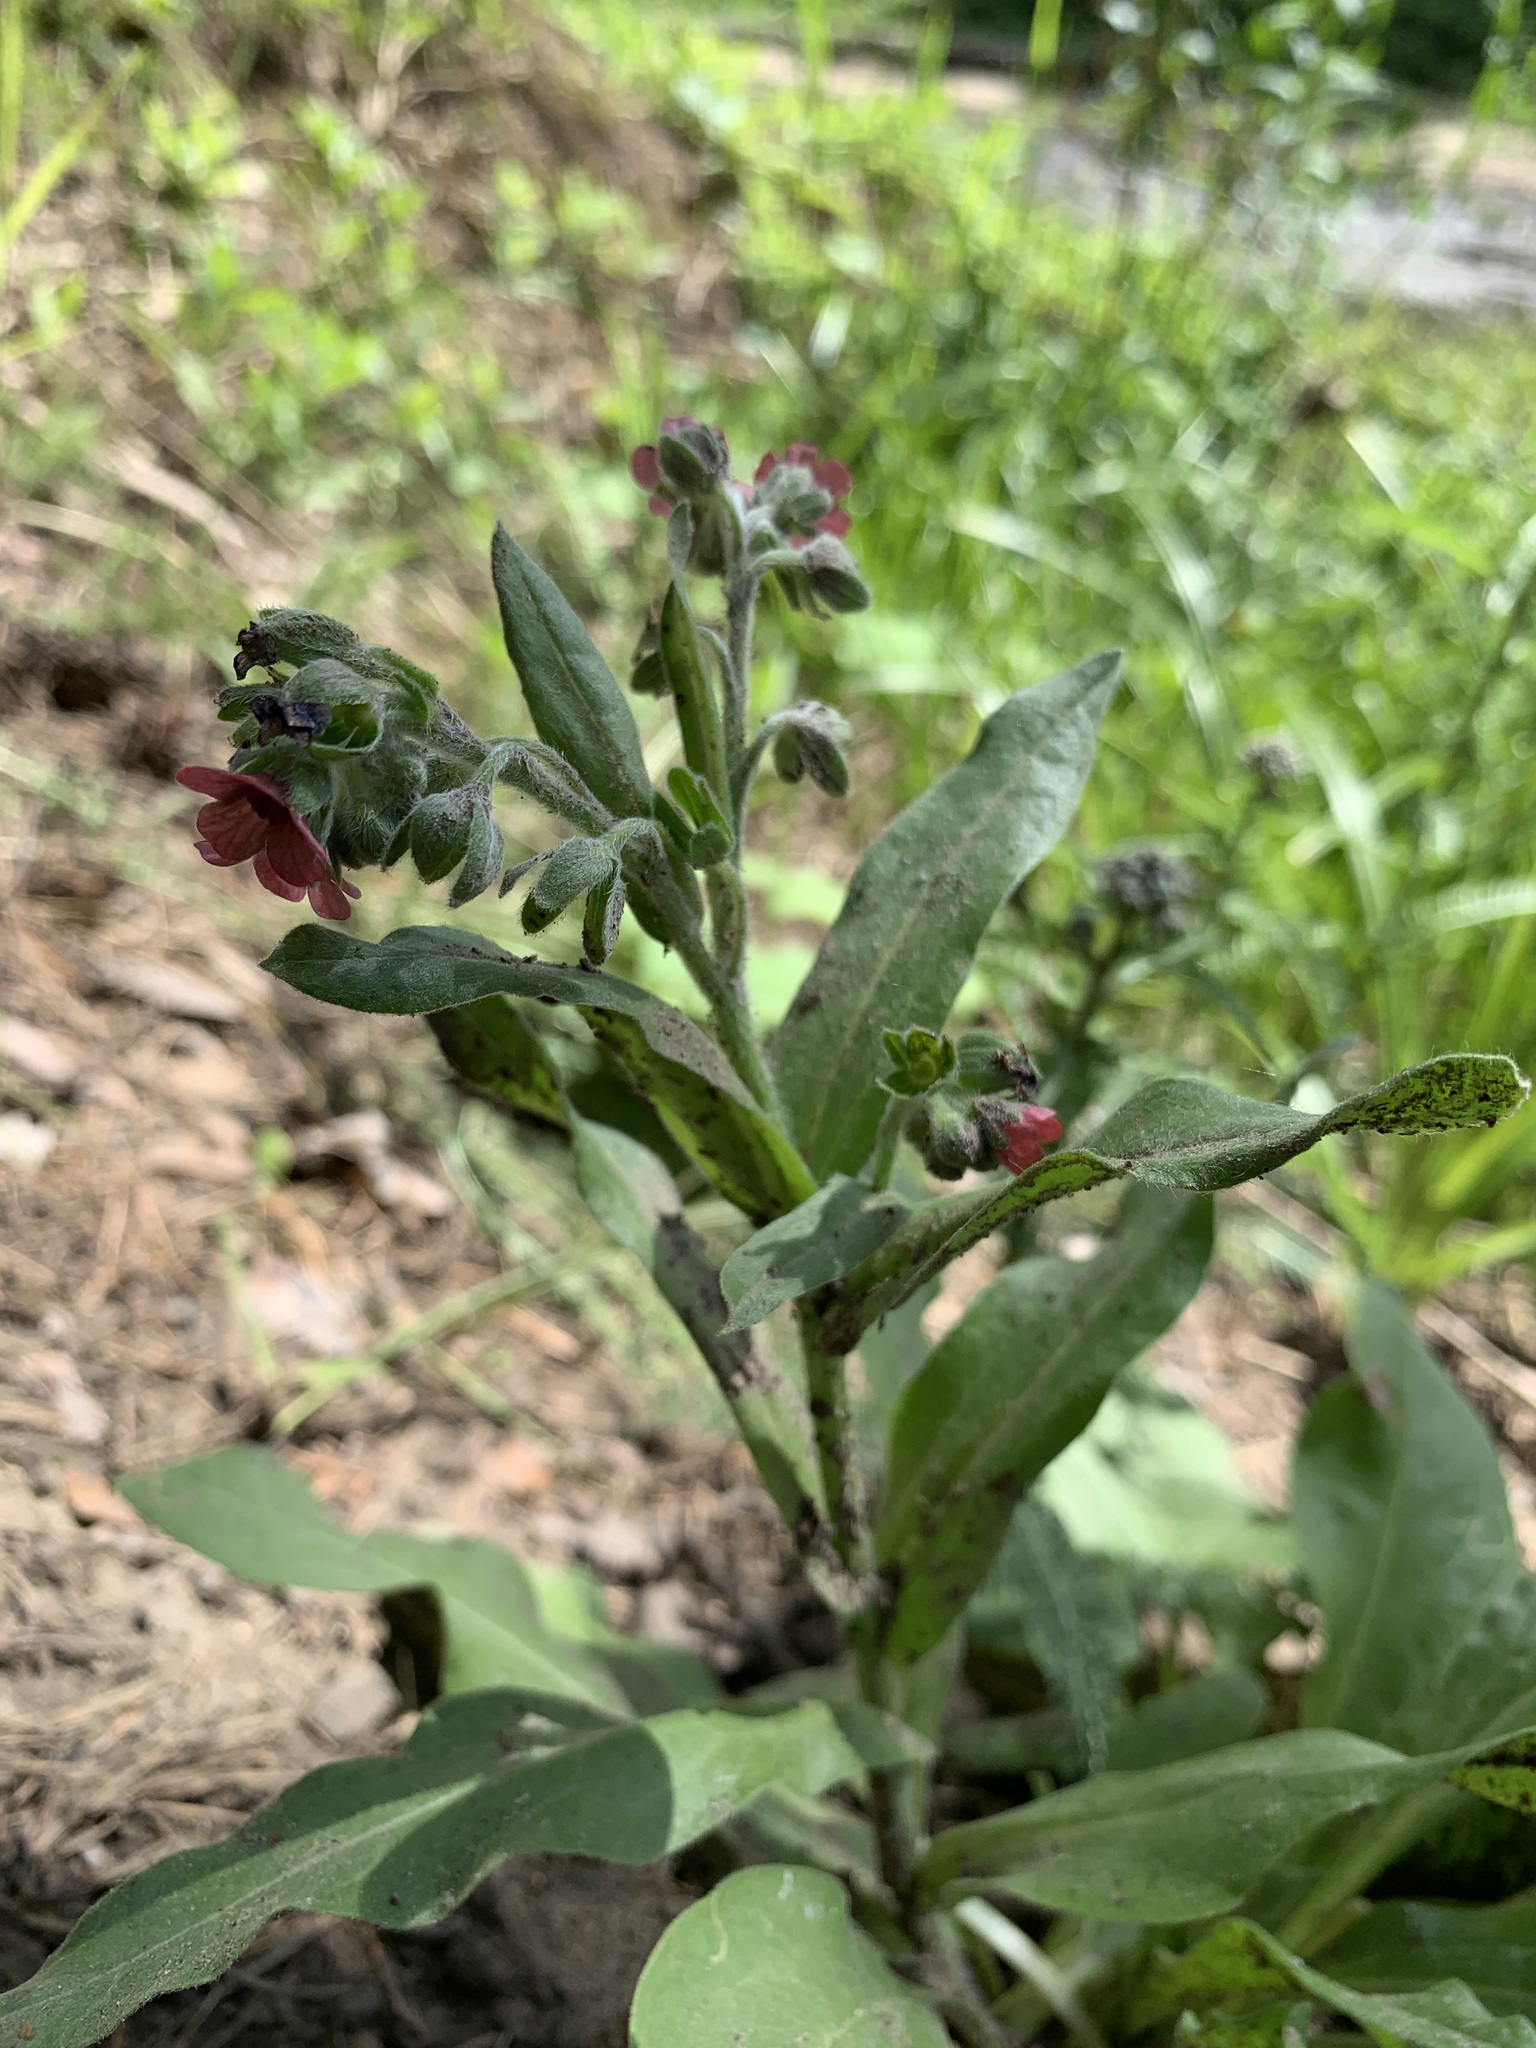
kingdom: Plantae
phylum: Tracheophyta
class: Magnoliopsida
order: Boraginales
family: Boraginaceae
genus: Cynoglossum
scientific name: Cynoglossum officinale
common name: Hound's-tongue
